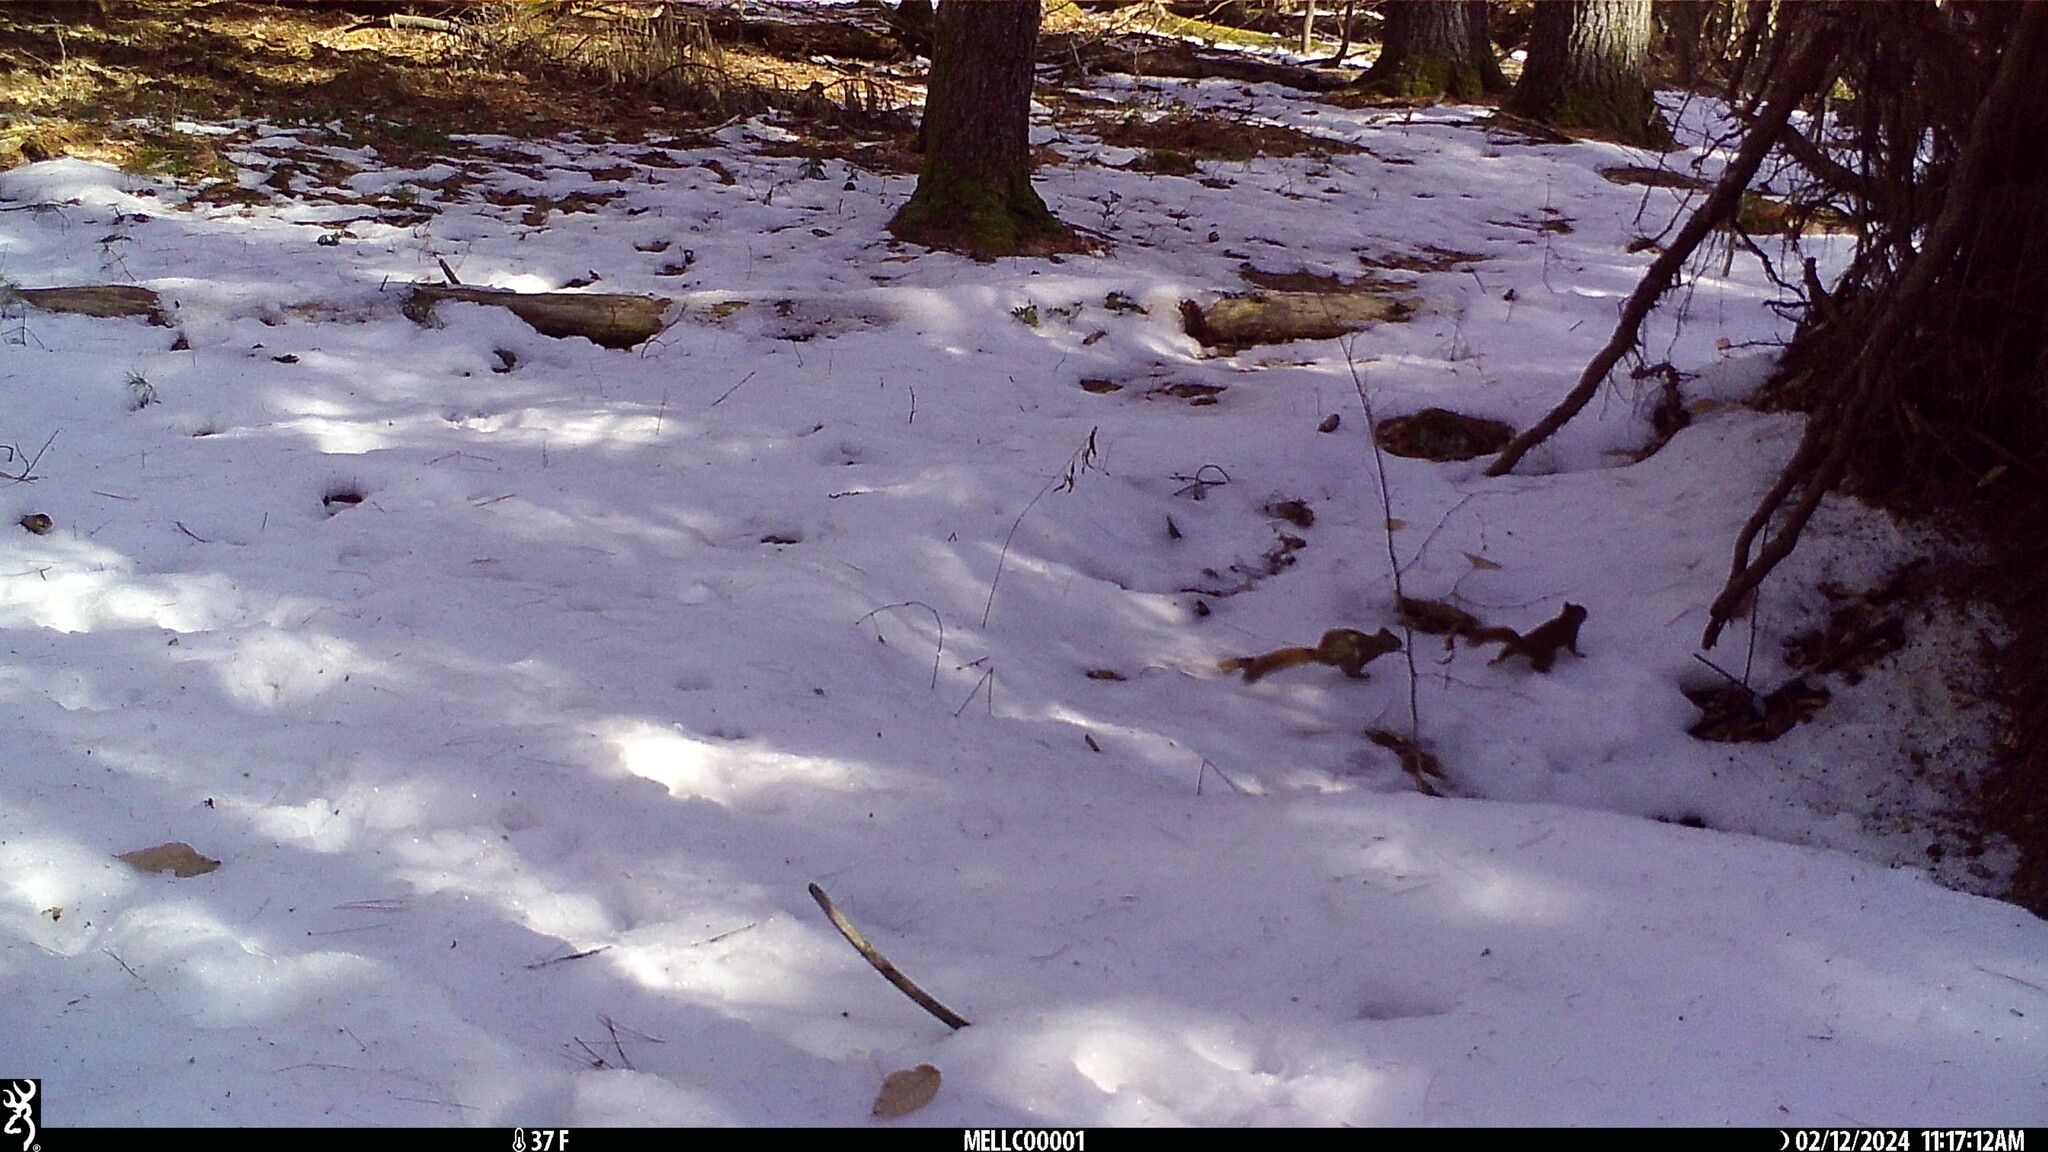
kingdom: Animalia
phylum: Chordata
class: Mammalia
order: Rodentia
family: Sciuridae
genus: Tamiasciurus
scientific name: Tamiasciurus hudsonicus
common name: Red squirrel
